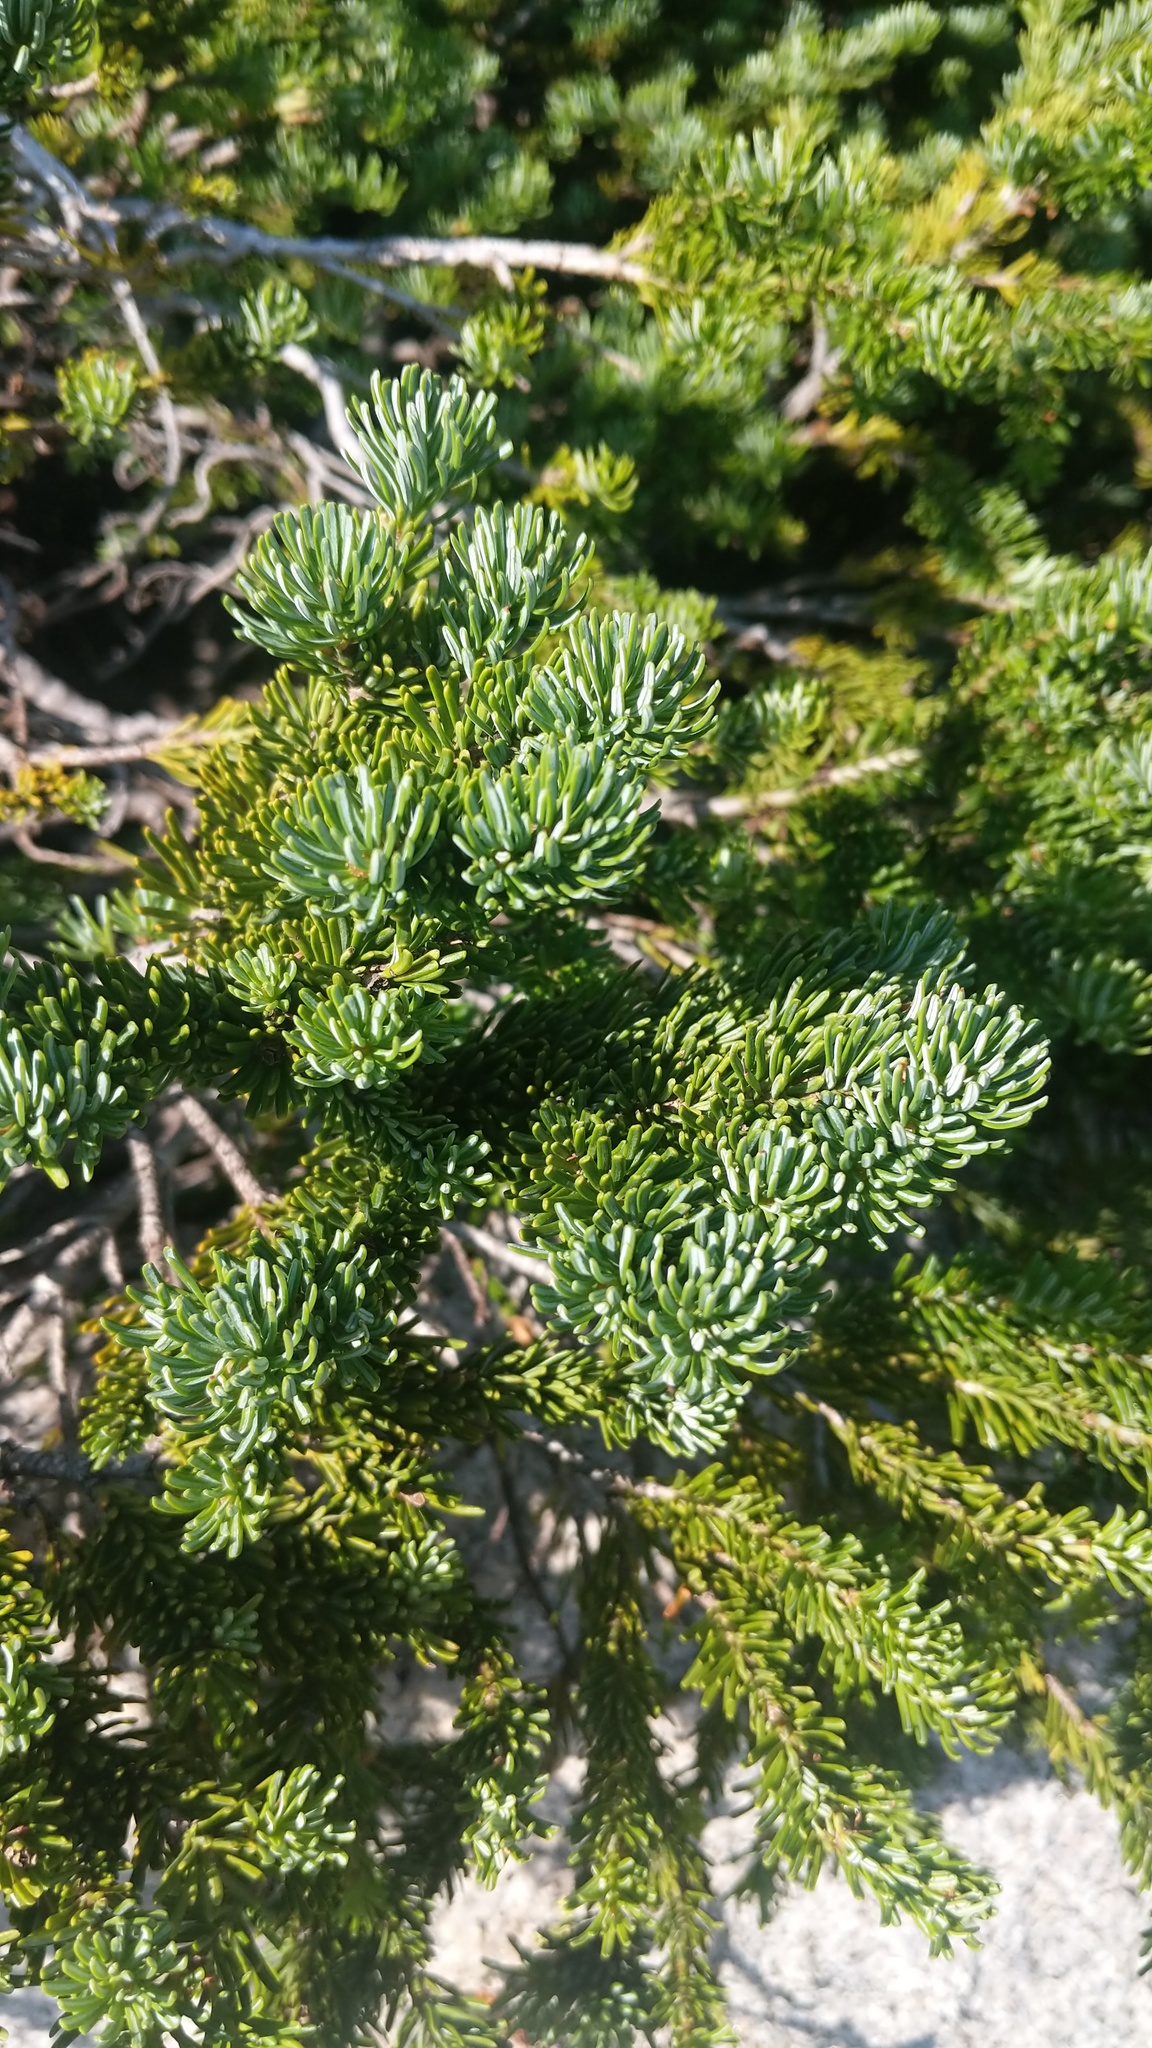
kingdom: Plantae
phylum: Tracheophyta
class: Pinopsida
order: Pinales
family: Pinaceae
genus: Abies
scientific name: Abies lasiocarpa
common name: Subalpine fir
